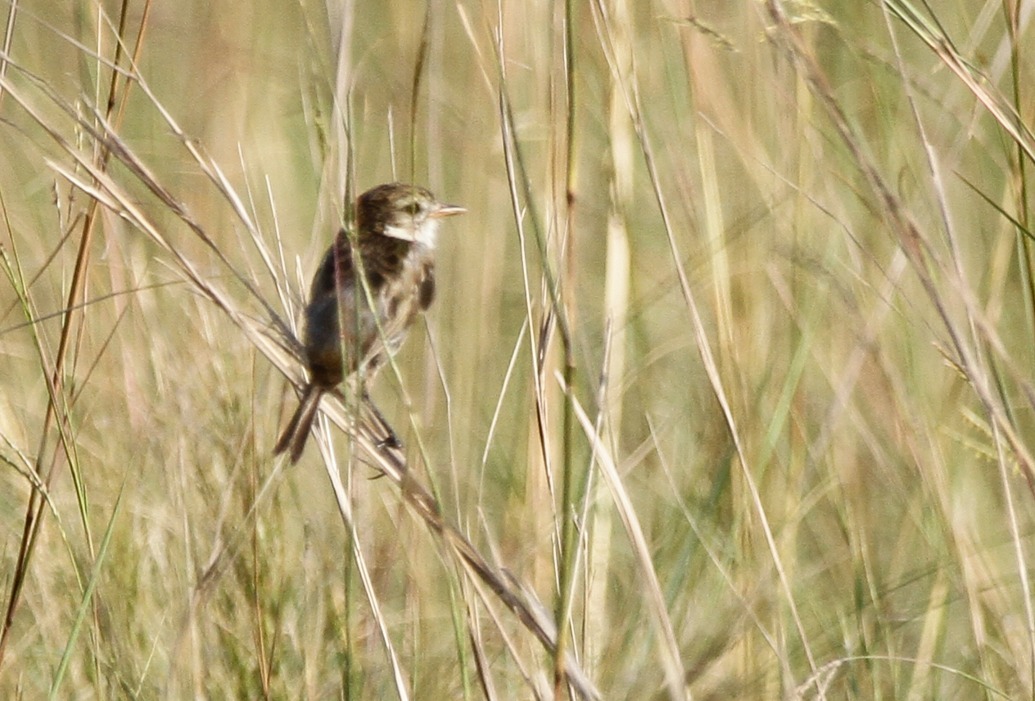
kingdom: Animalia
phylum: Chordata
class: Aves
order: Passeriformes
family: Tyrannidae
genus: Alectrurus
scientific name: Alectrurus risora
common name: Strange-tailed tyrant
